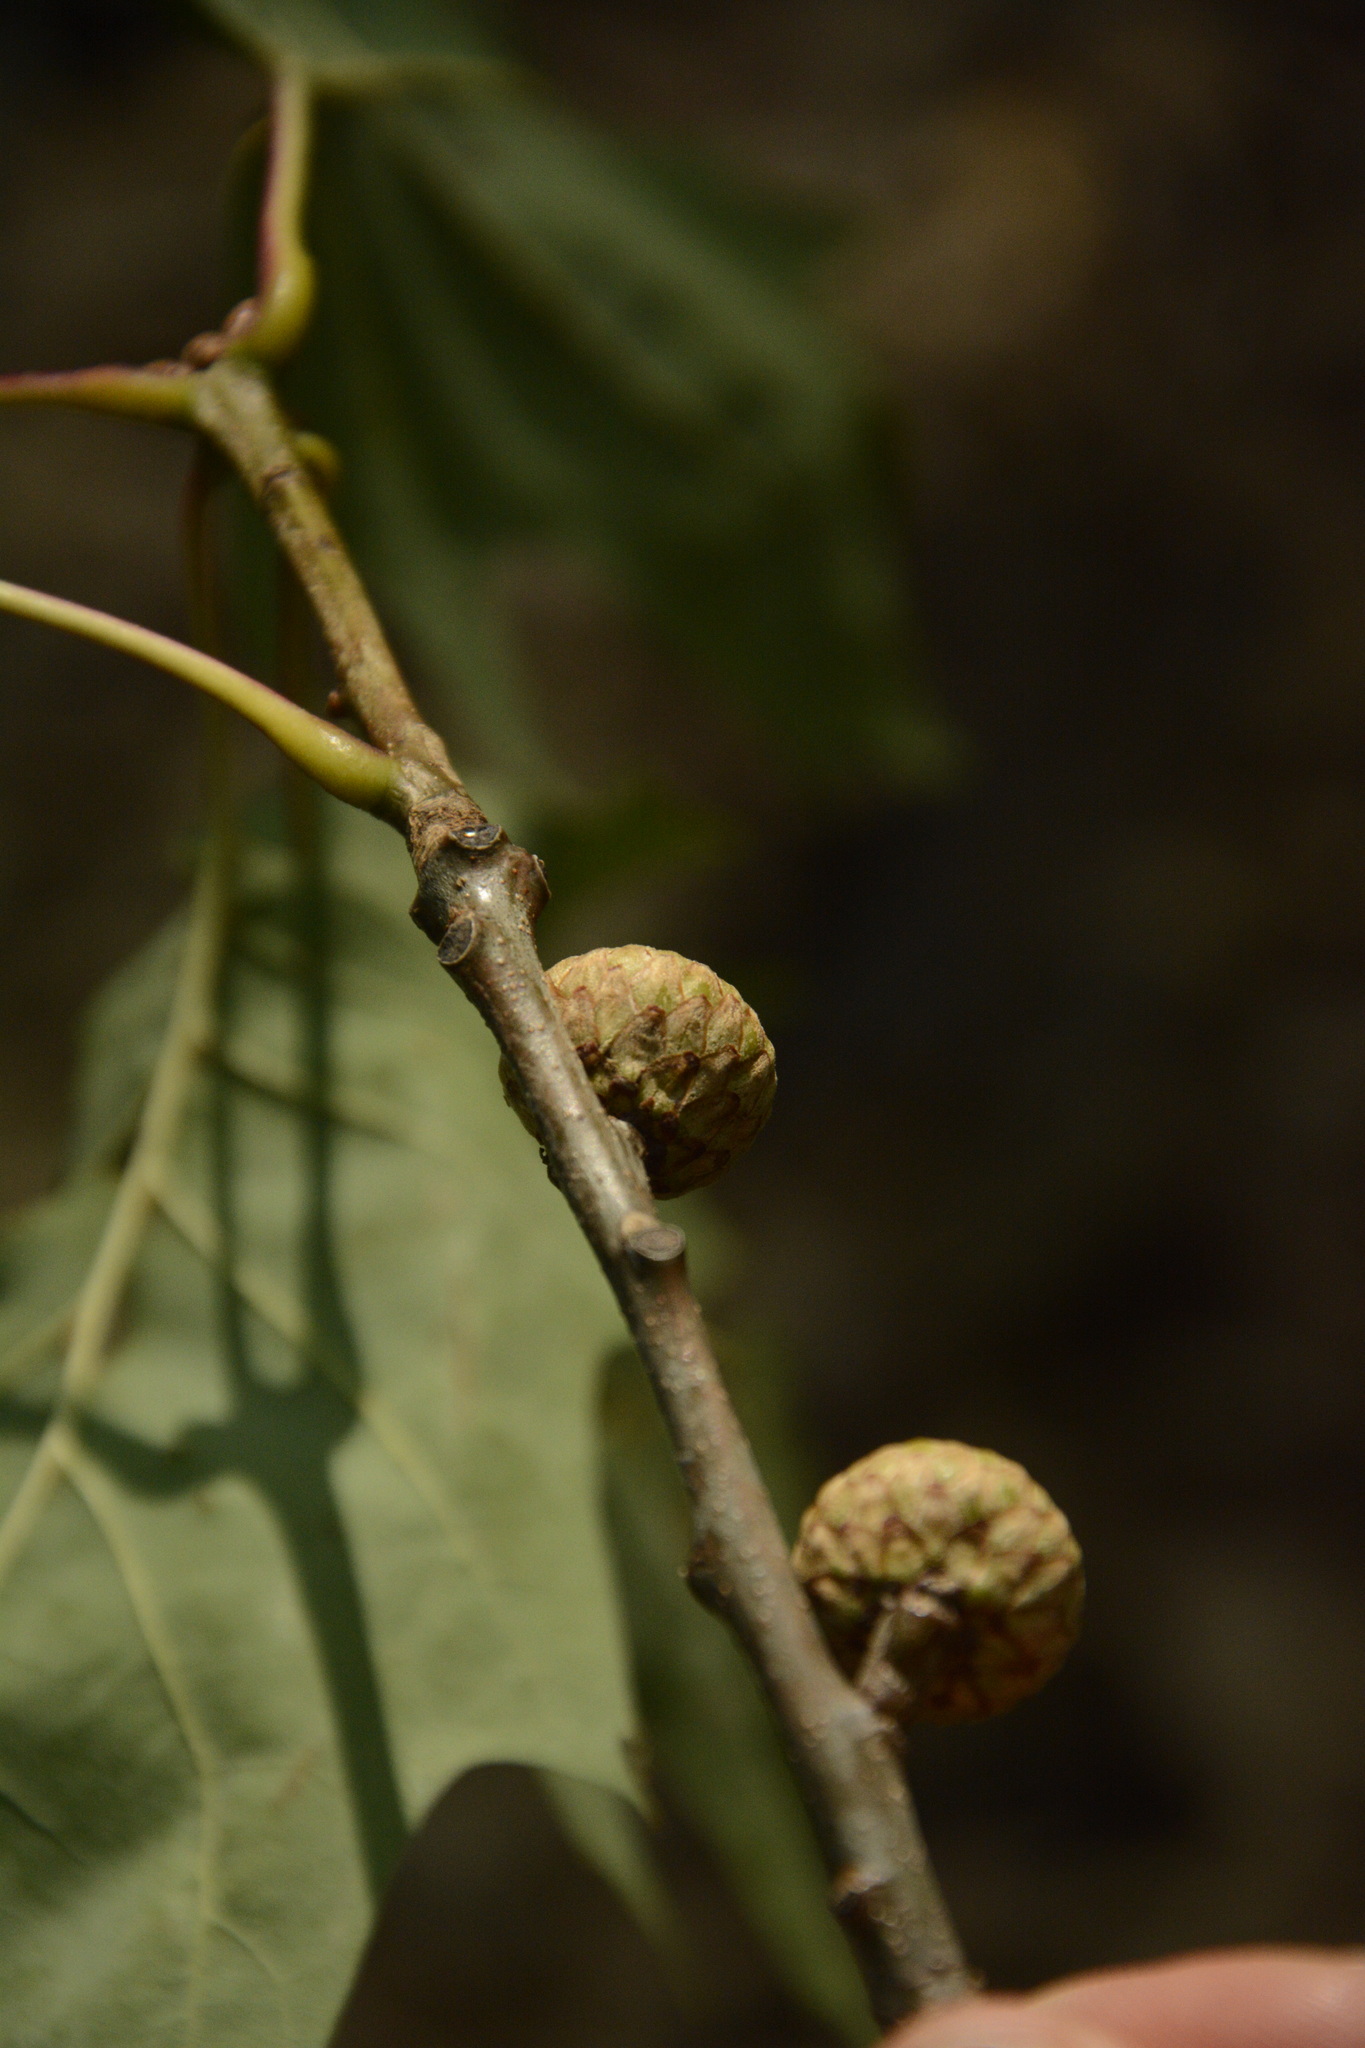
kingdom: Plantae
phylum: Tracheophyta
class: Magnoliopsida
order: Fagales
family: Fagaceae
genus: Quercus
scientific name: Quercus rubra
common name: Red oak
